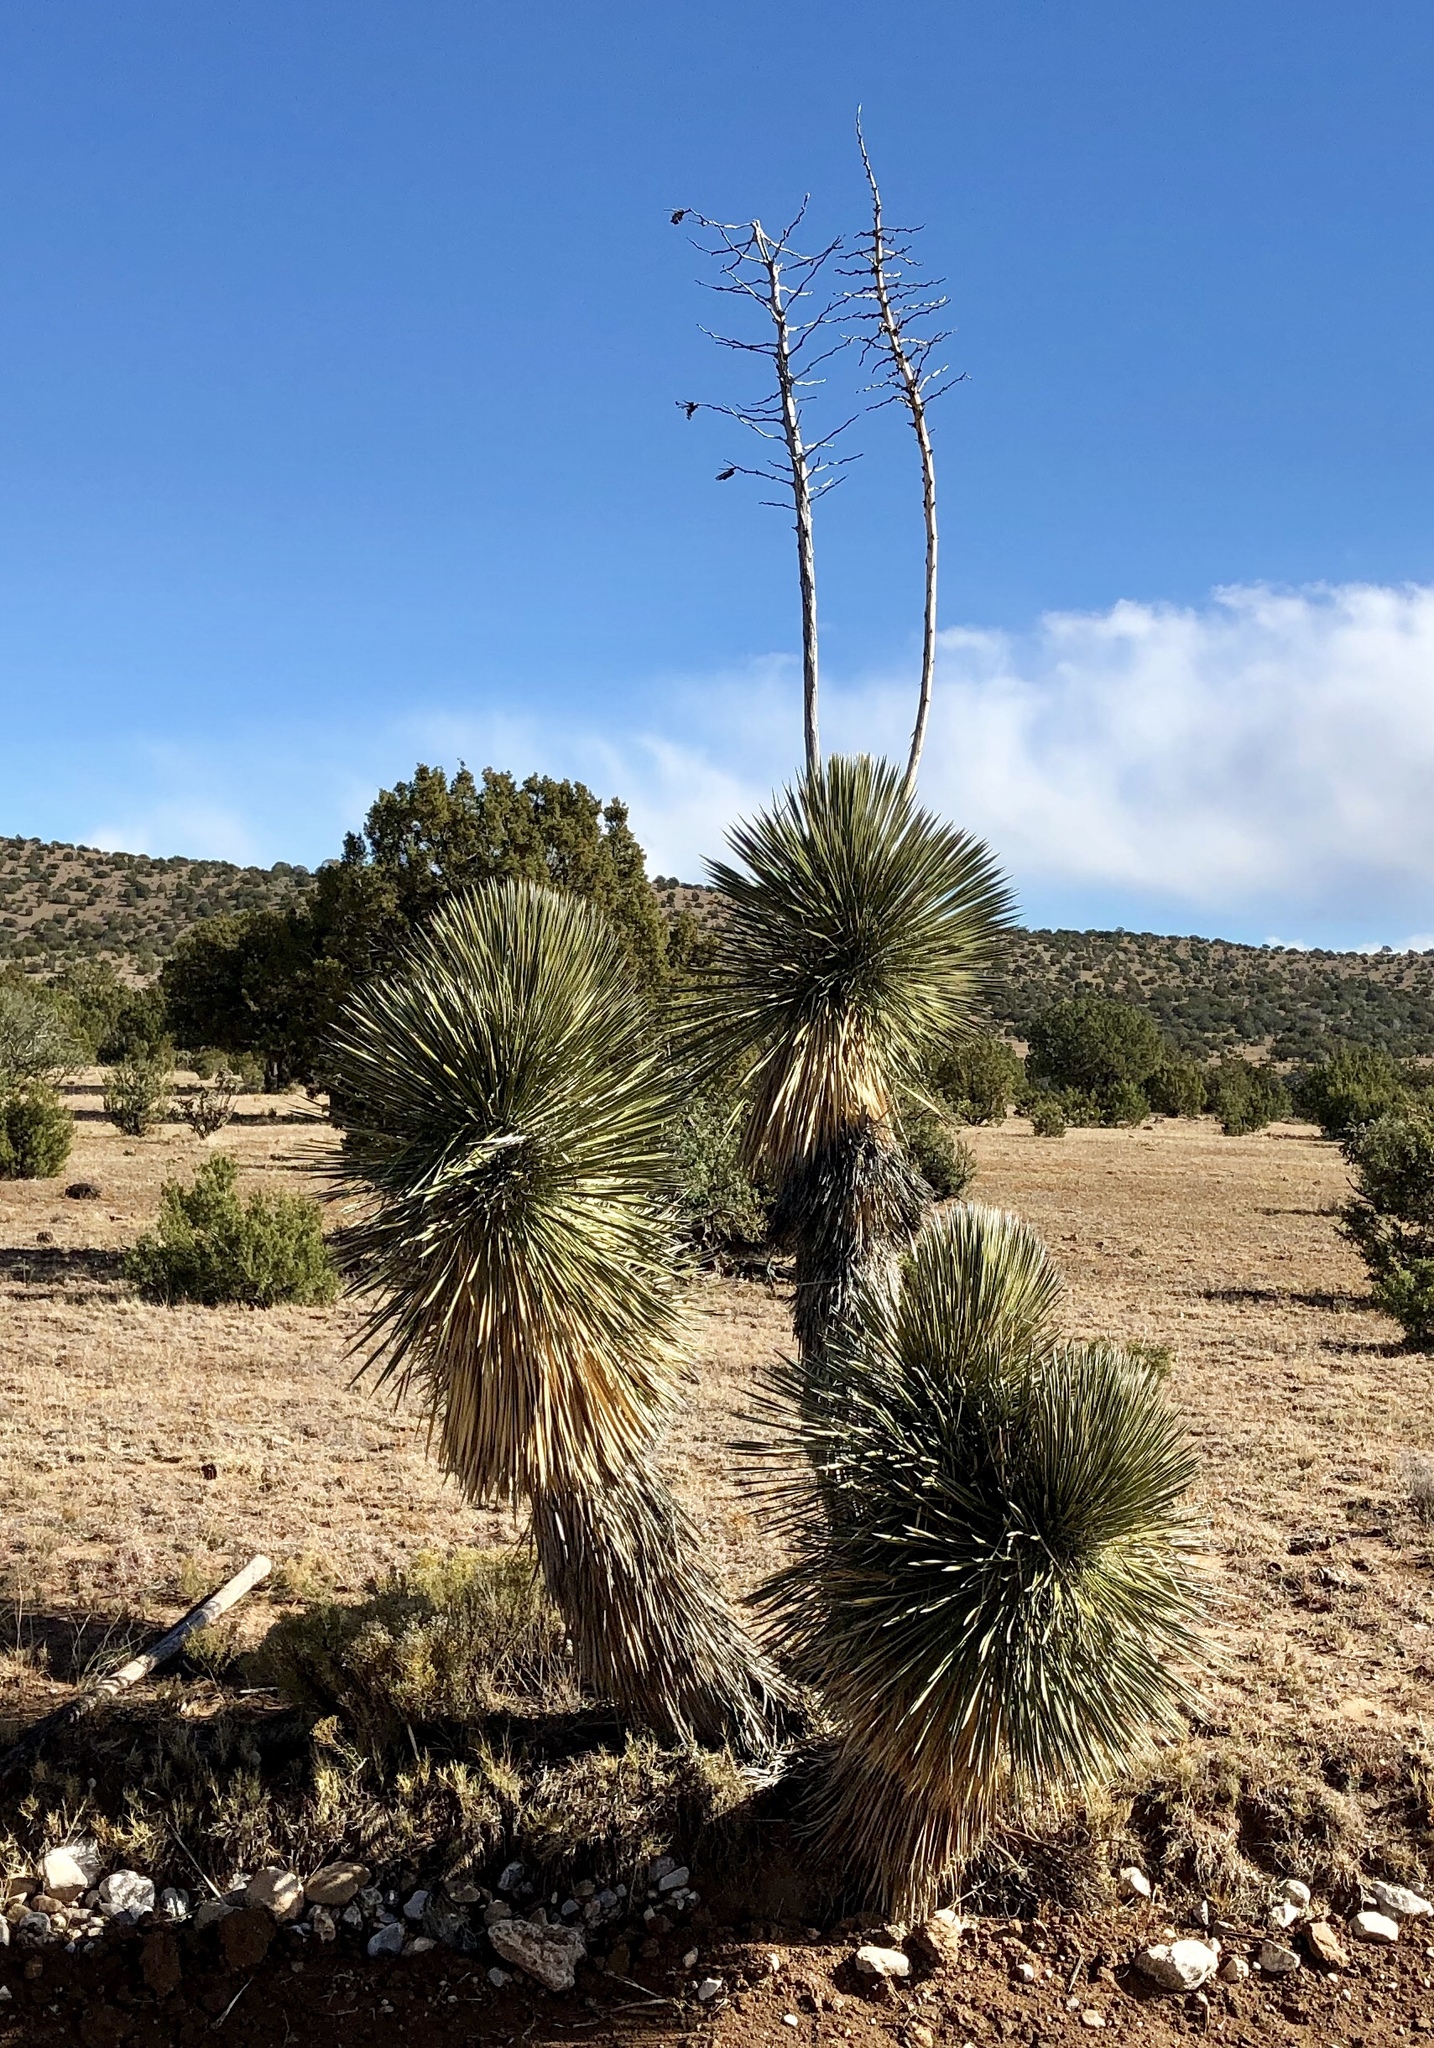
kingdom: Plantae
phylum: Tracheophyta
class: Liliopsida
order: Asparagales
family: Asparagaceae
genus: Yucca
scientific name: Yucca elata
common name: Palmella
